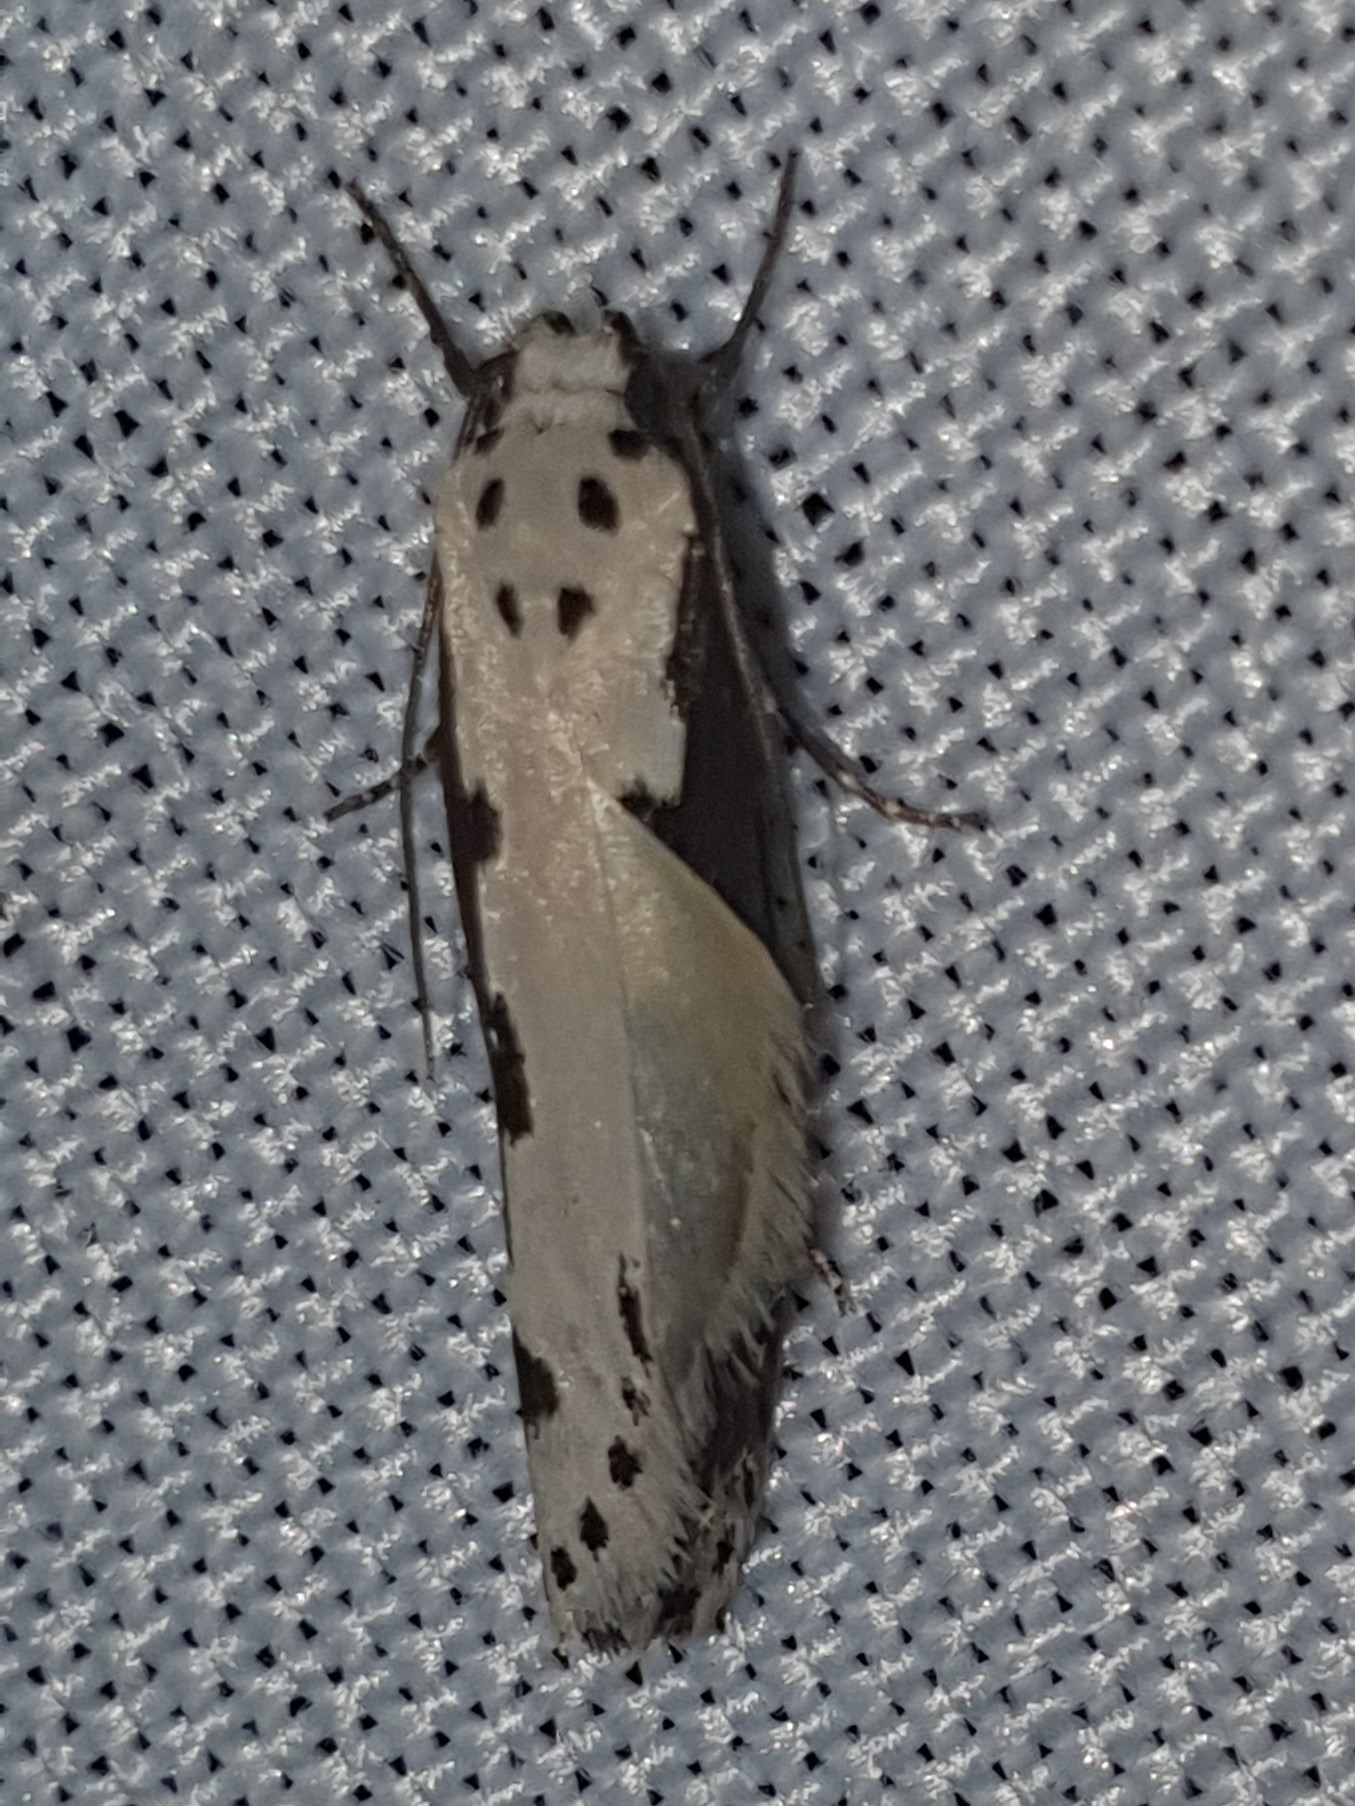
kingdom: Animalia
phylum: Arthropoda
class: Insecta
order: Lepidoptera
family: Ethmiidae
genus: Ethmia
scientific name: Ethmia bipunctella
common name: Bordered ermel
